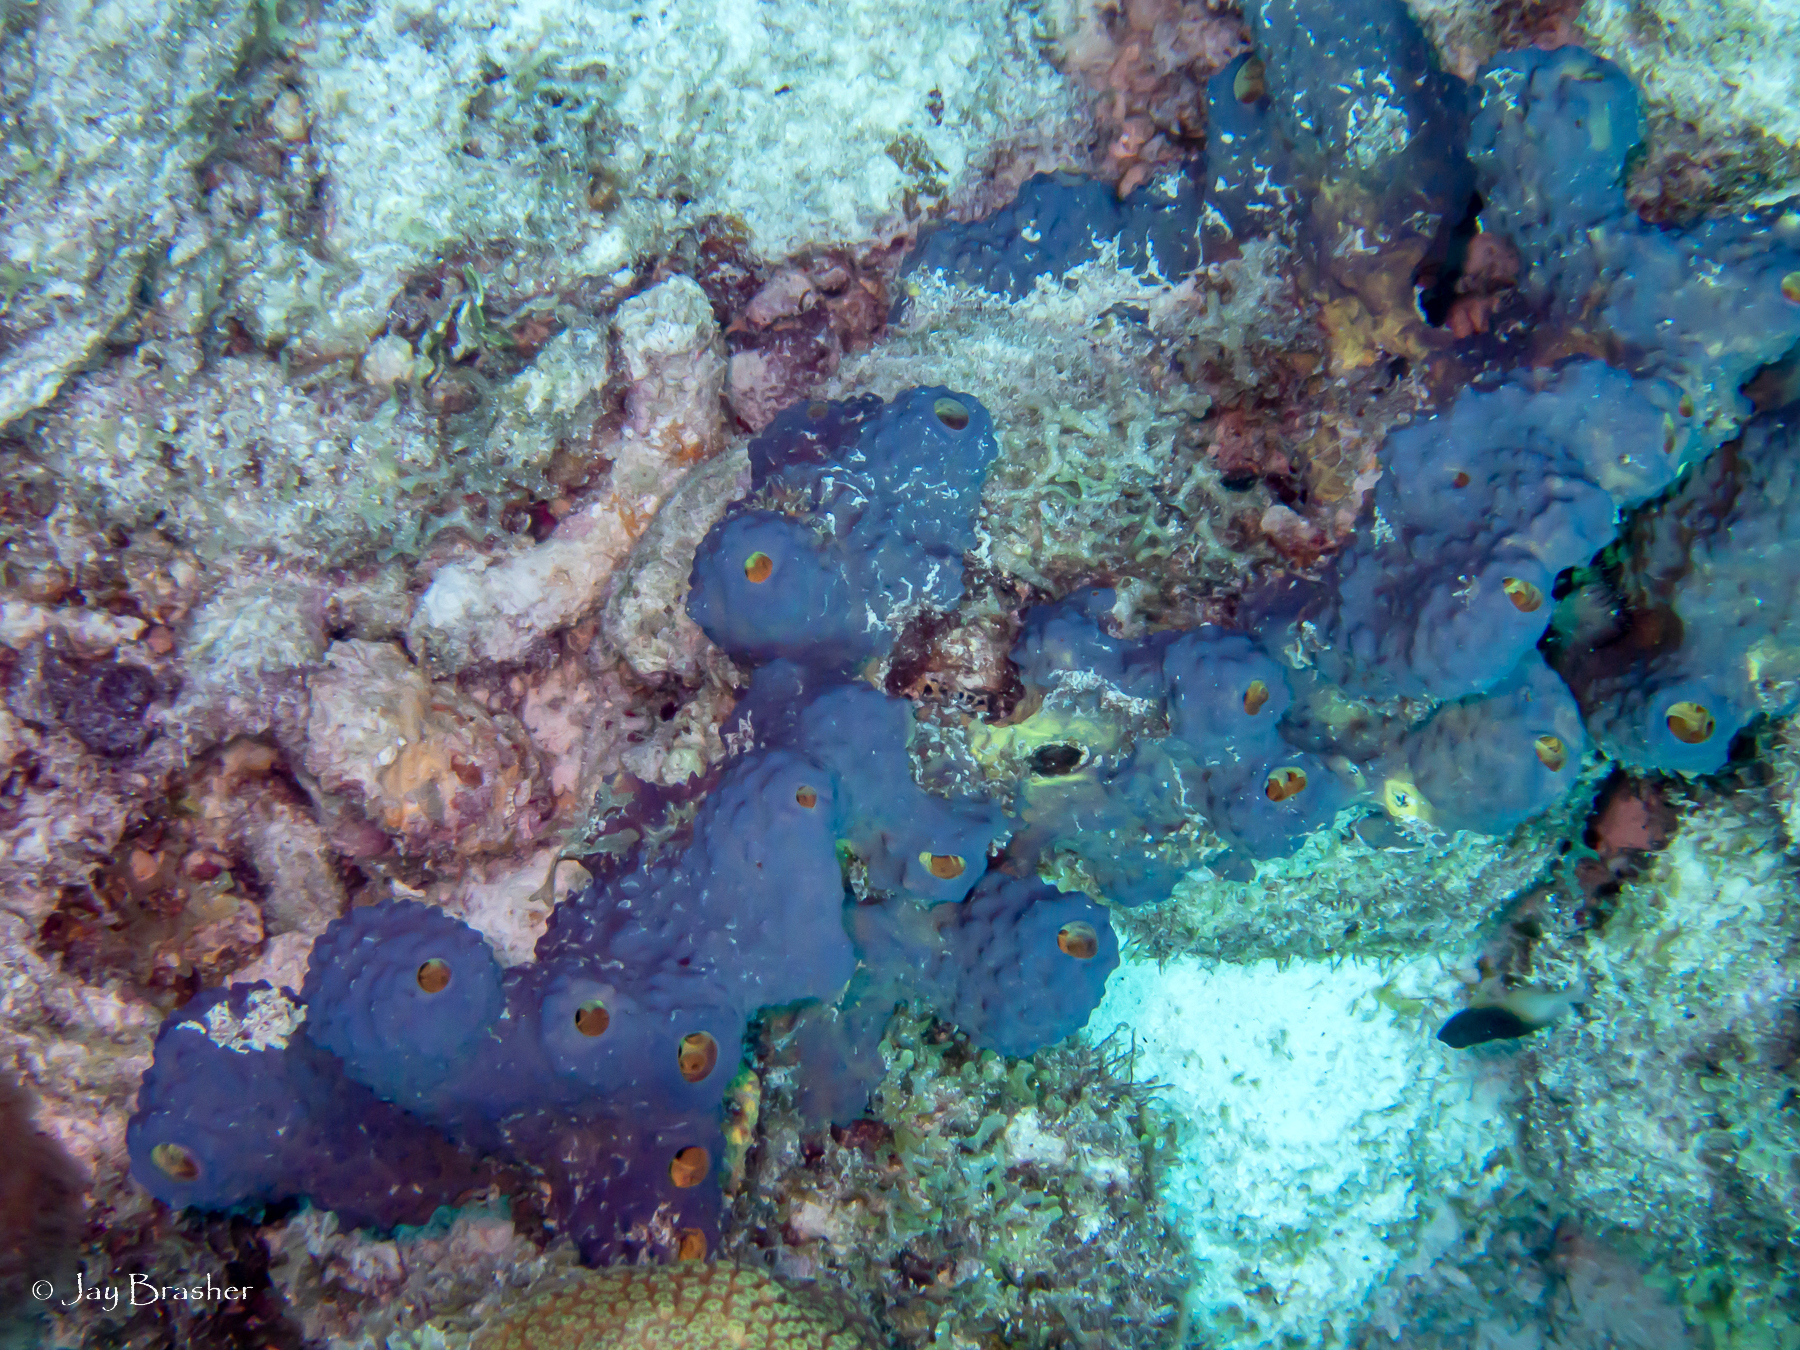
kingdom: Animalia
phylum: Porifera
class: Demospongiae
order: Verongiida
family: Aplysinidae
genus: Aiolochroia
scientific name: Aiolochroia crassa
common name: Branching tube sponge
